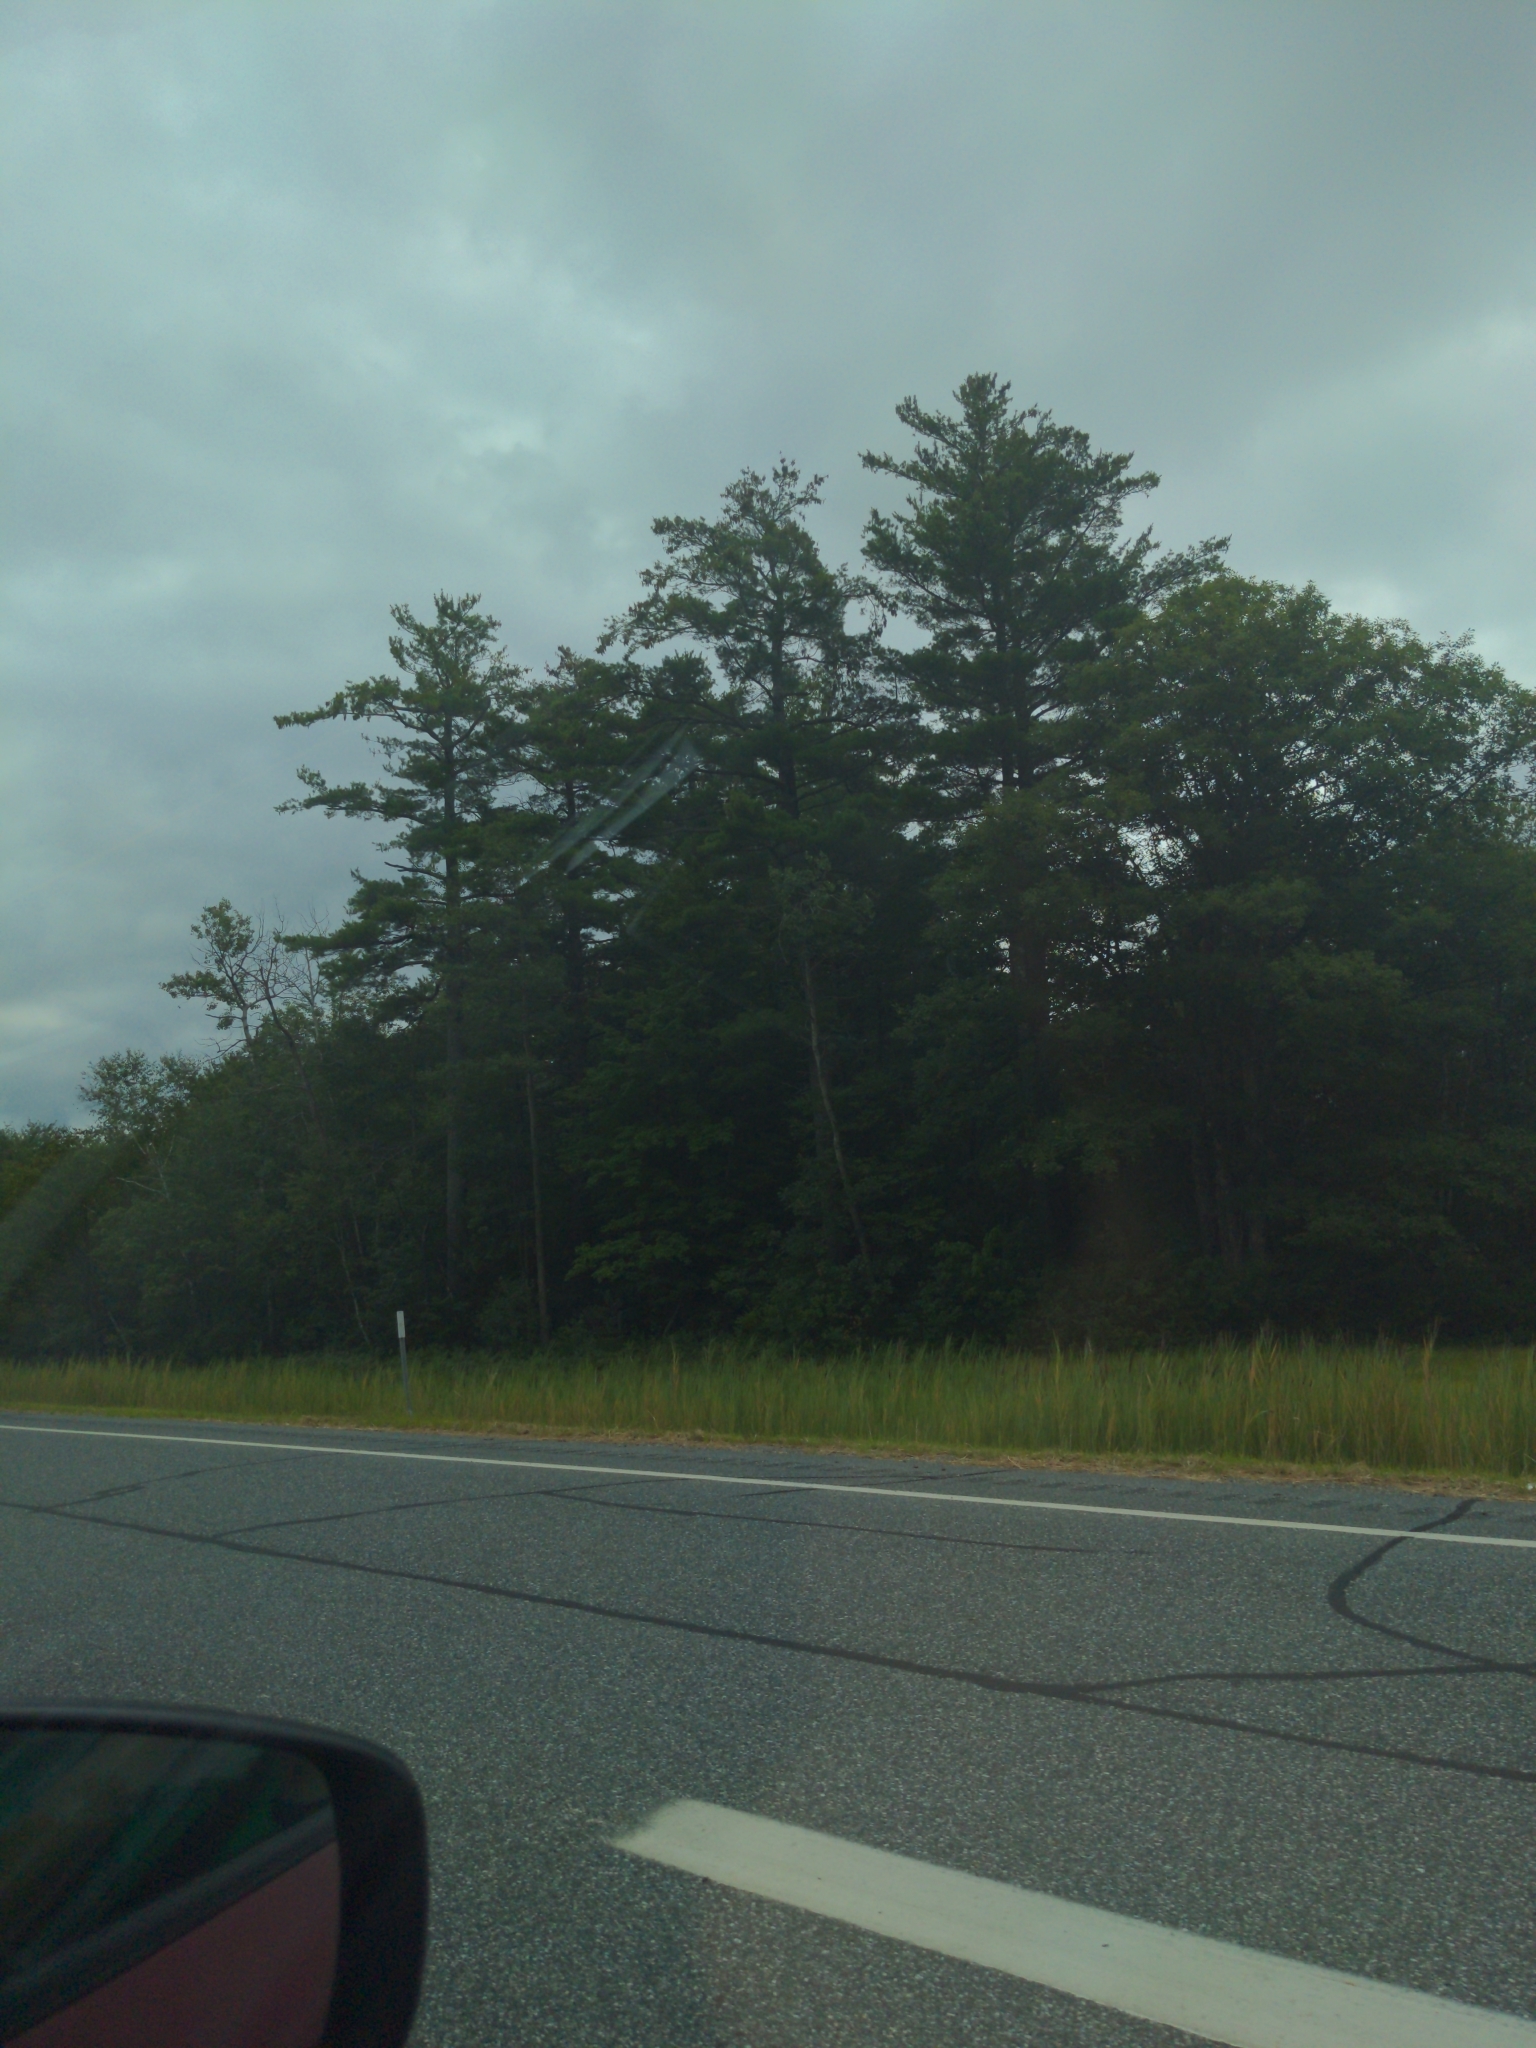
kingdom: Plantae
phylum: Tracheophyta
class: Pinopsida
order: Pinales
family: Pinaceae
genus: Pinus
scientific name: Pinus strobus
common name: Weymouth pine
